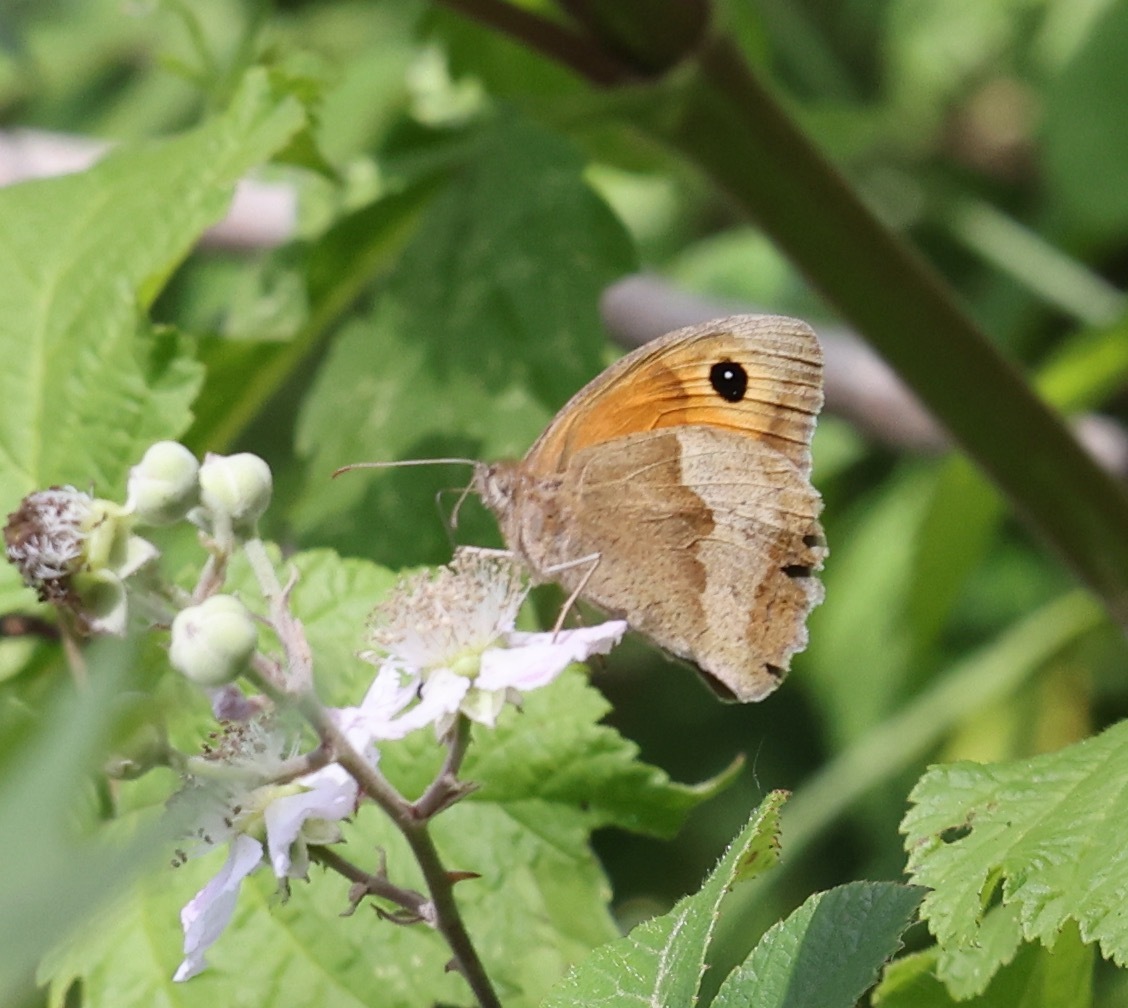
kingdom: Animalia
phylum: Arthropoda
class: Insecta
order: Lepidoptera
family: Nymphalidae
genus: Maniola
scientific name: Maniola jurtina
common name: Meadow brown
